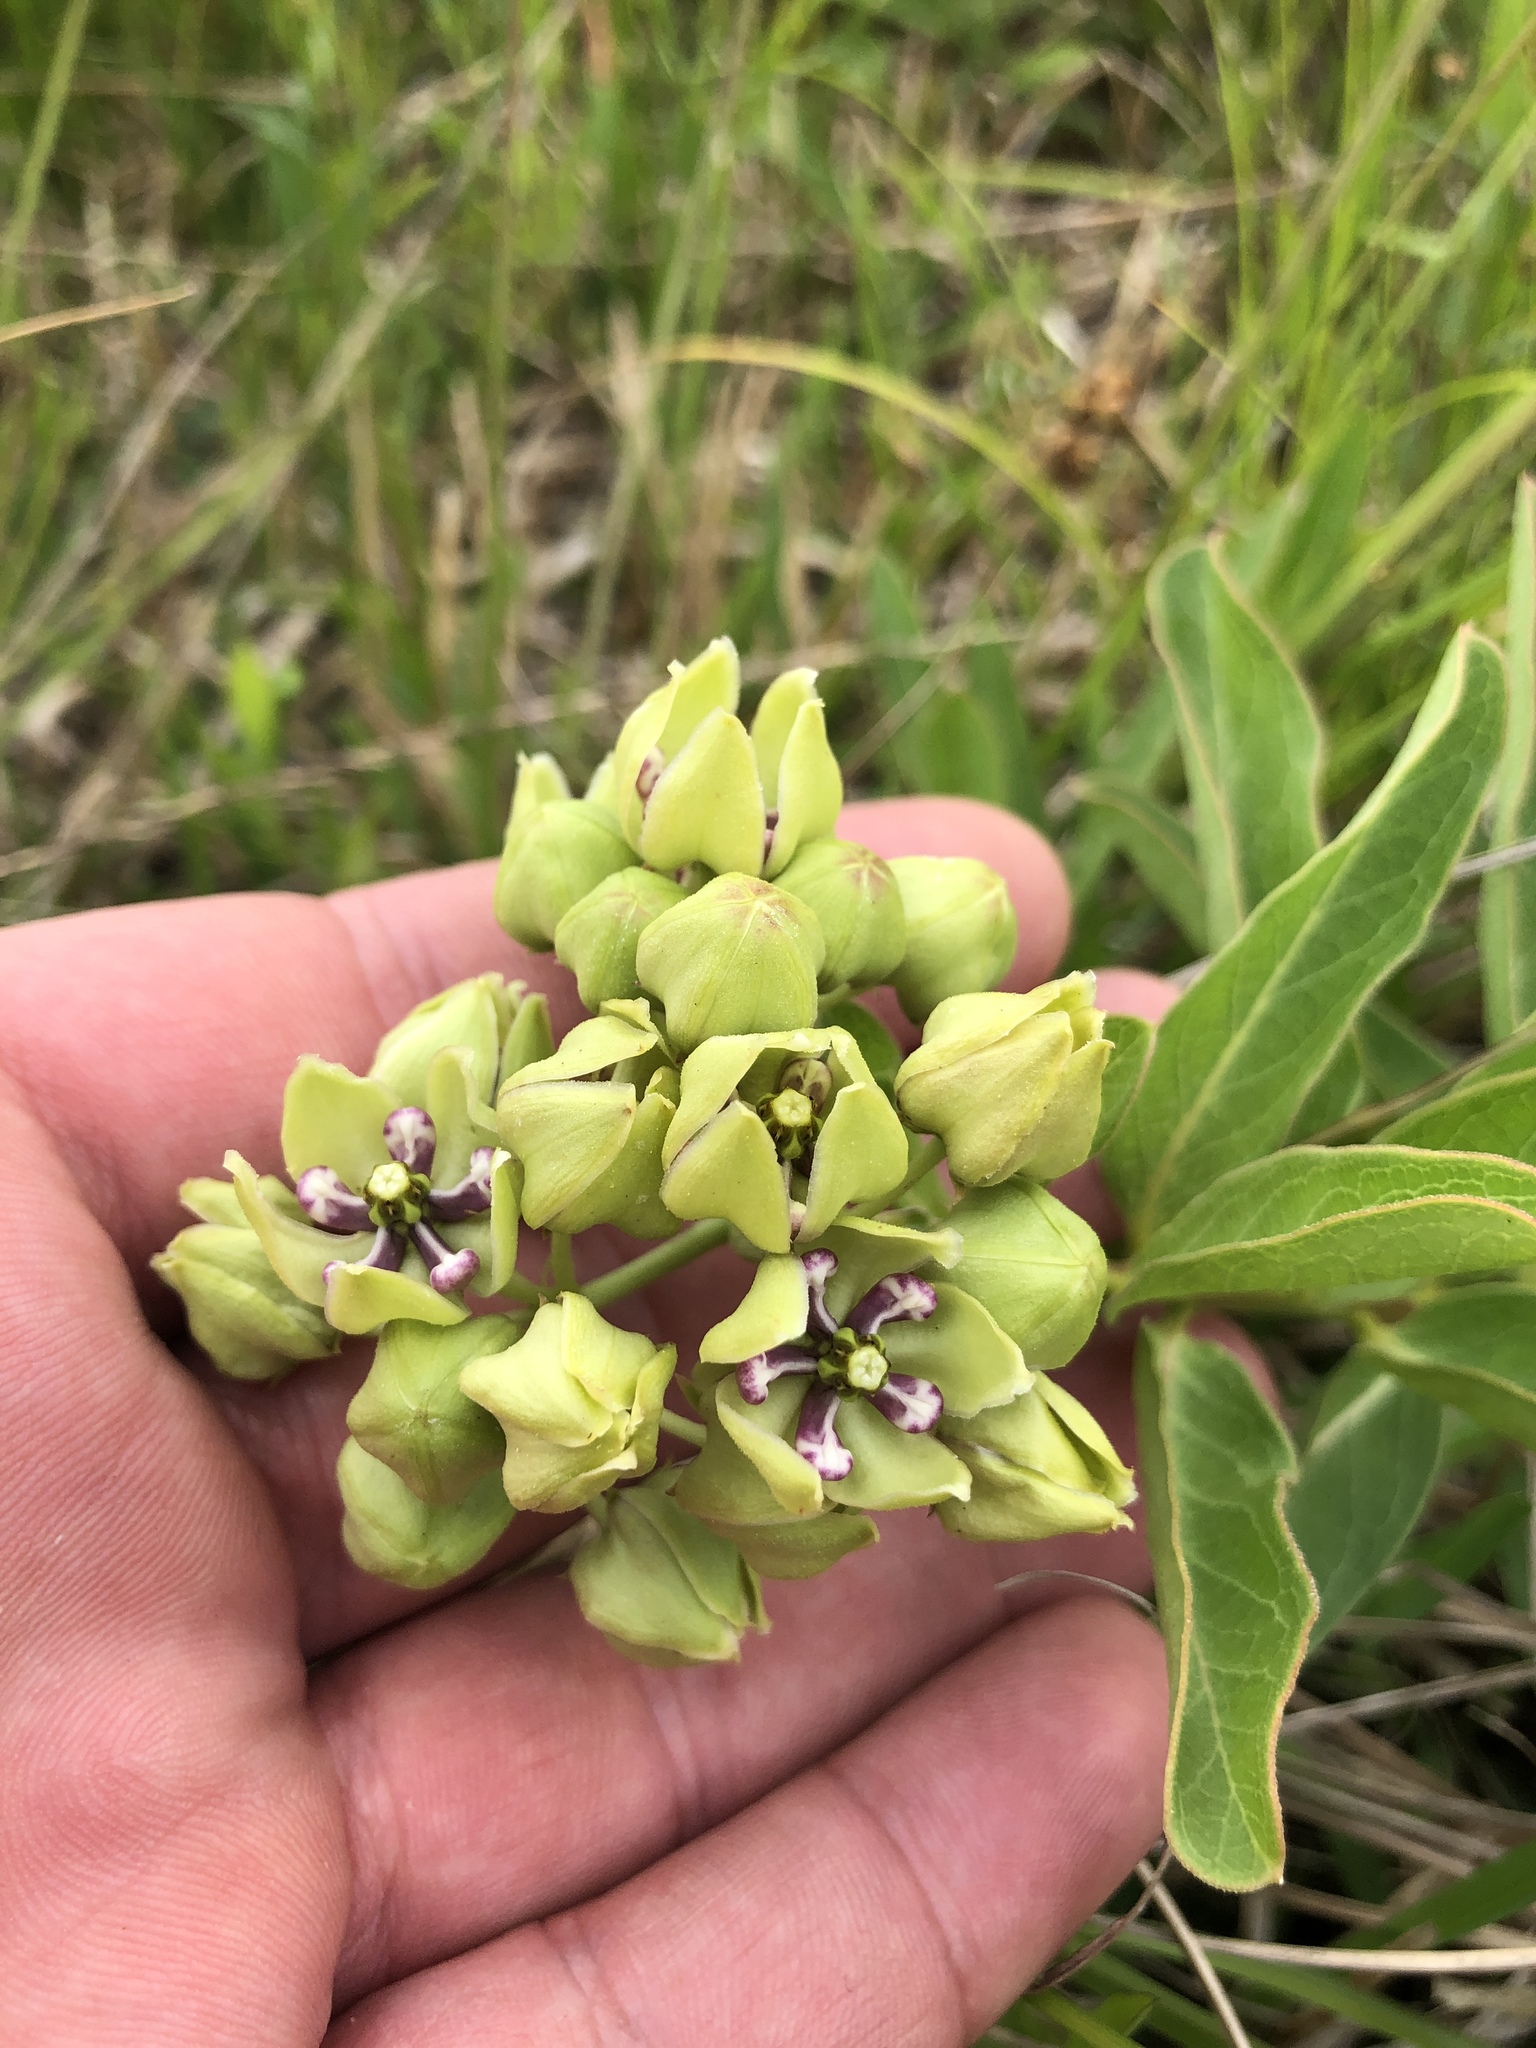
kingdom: Plantae
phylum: Tracheophyta
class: Magnoliopsida
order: Gentianales
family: Apocynaceae
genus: Asclepias
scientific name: Asclepias viridis
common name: Antelope-horns
